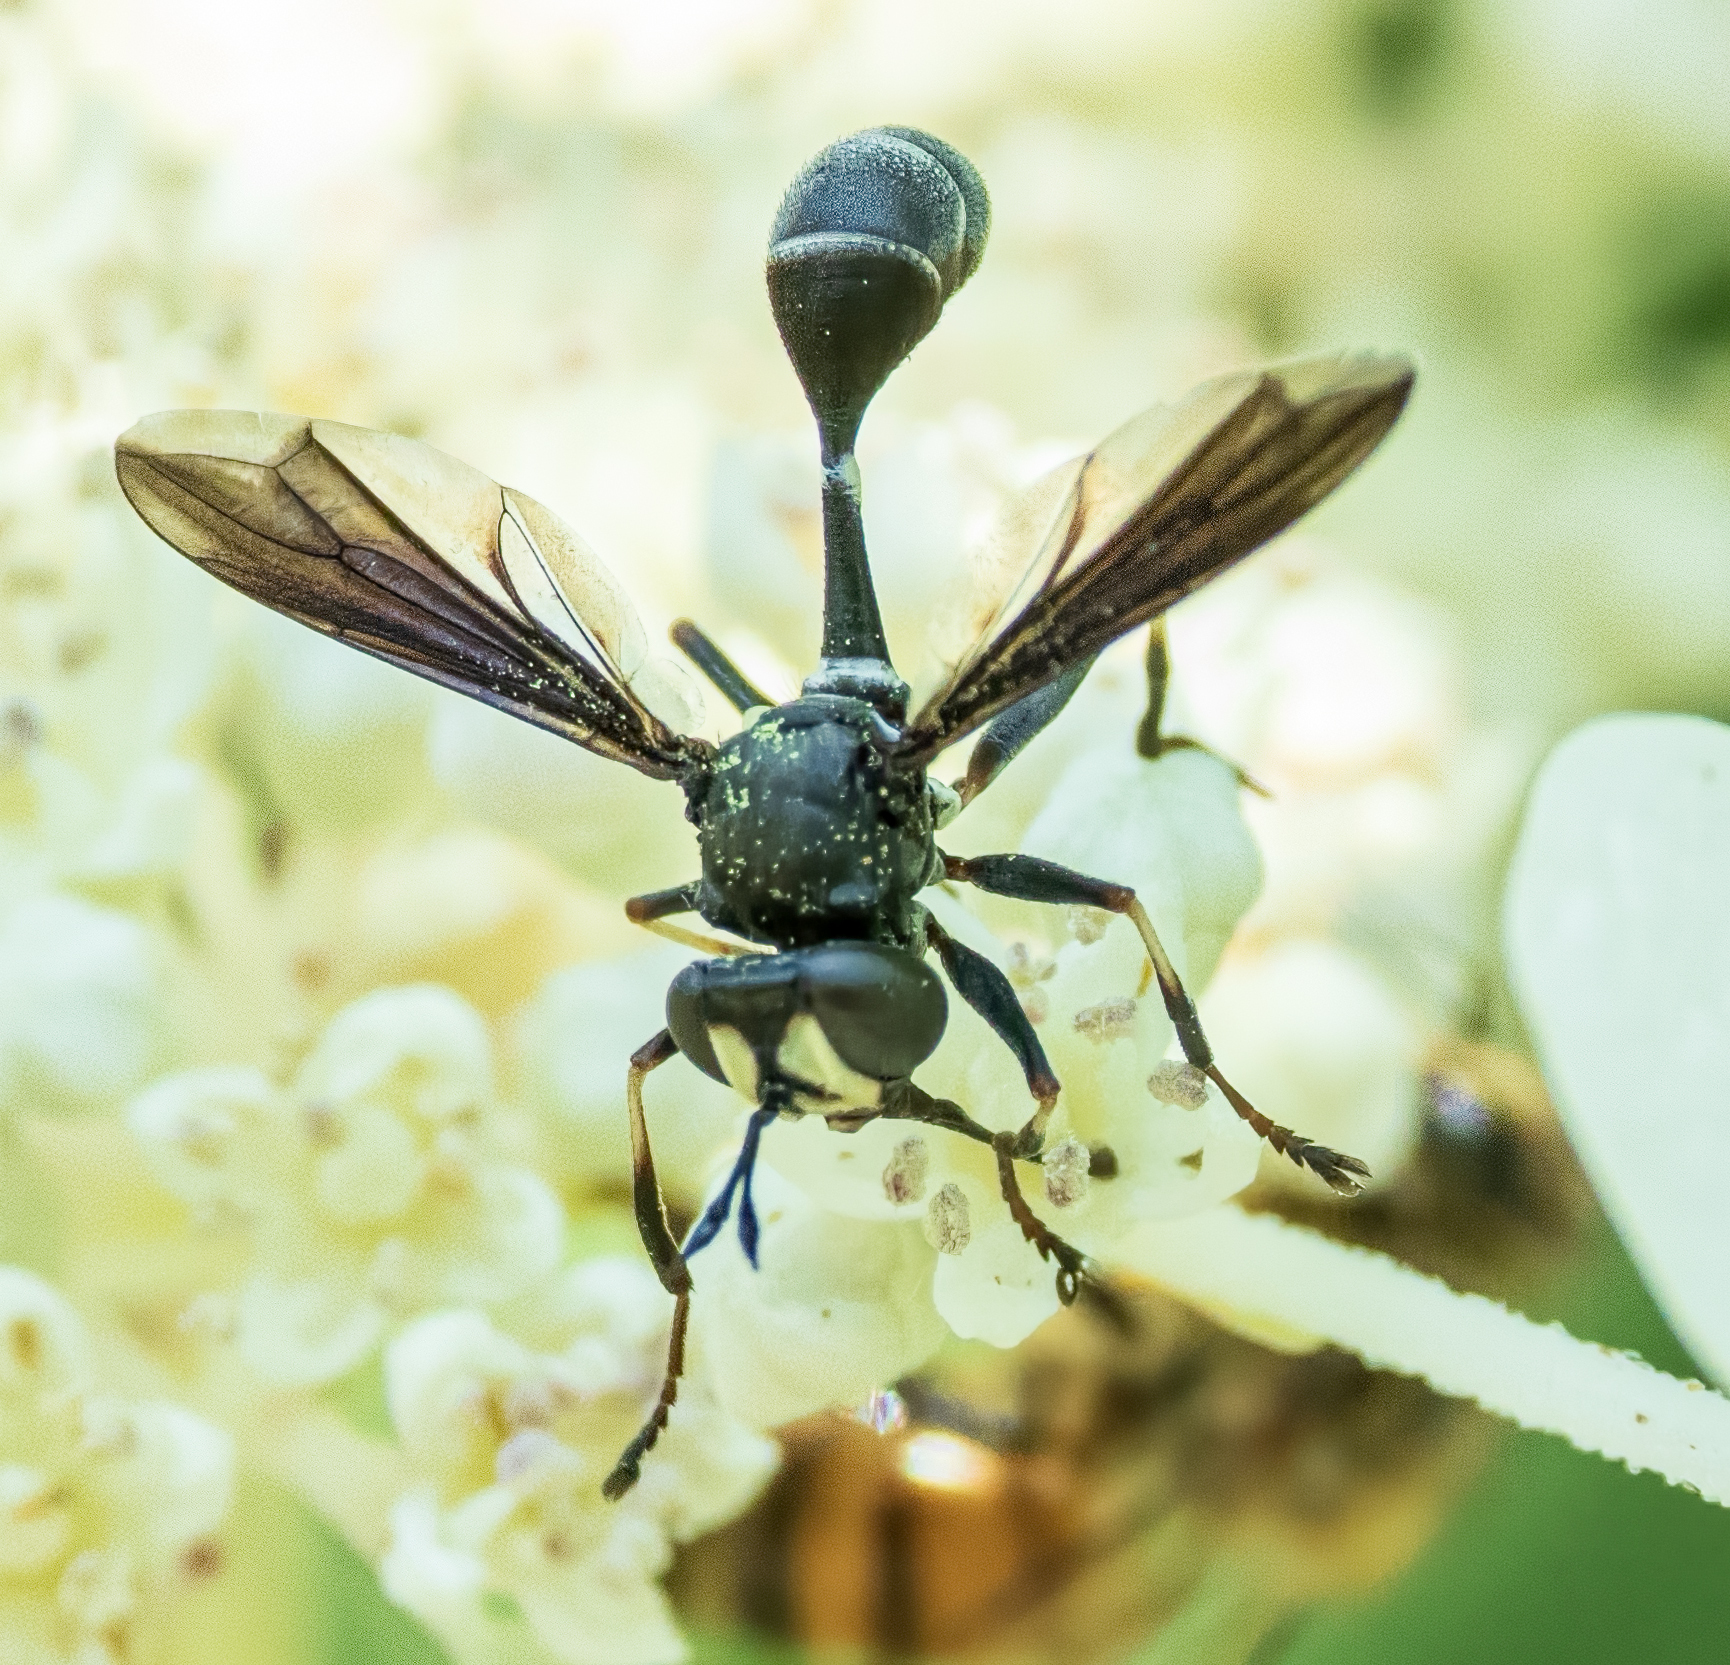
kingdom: Animalia
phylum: Arthropoda
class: Insecta
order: Diptera
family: Conopidae
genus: Physocephala
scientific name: Physocephala tibialis
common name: Common eastern physocephala
